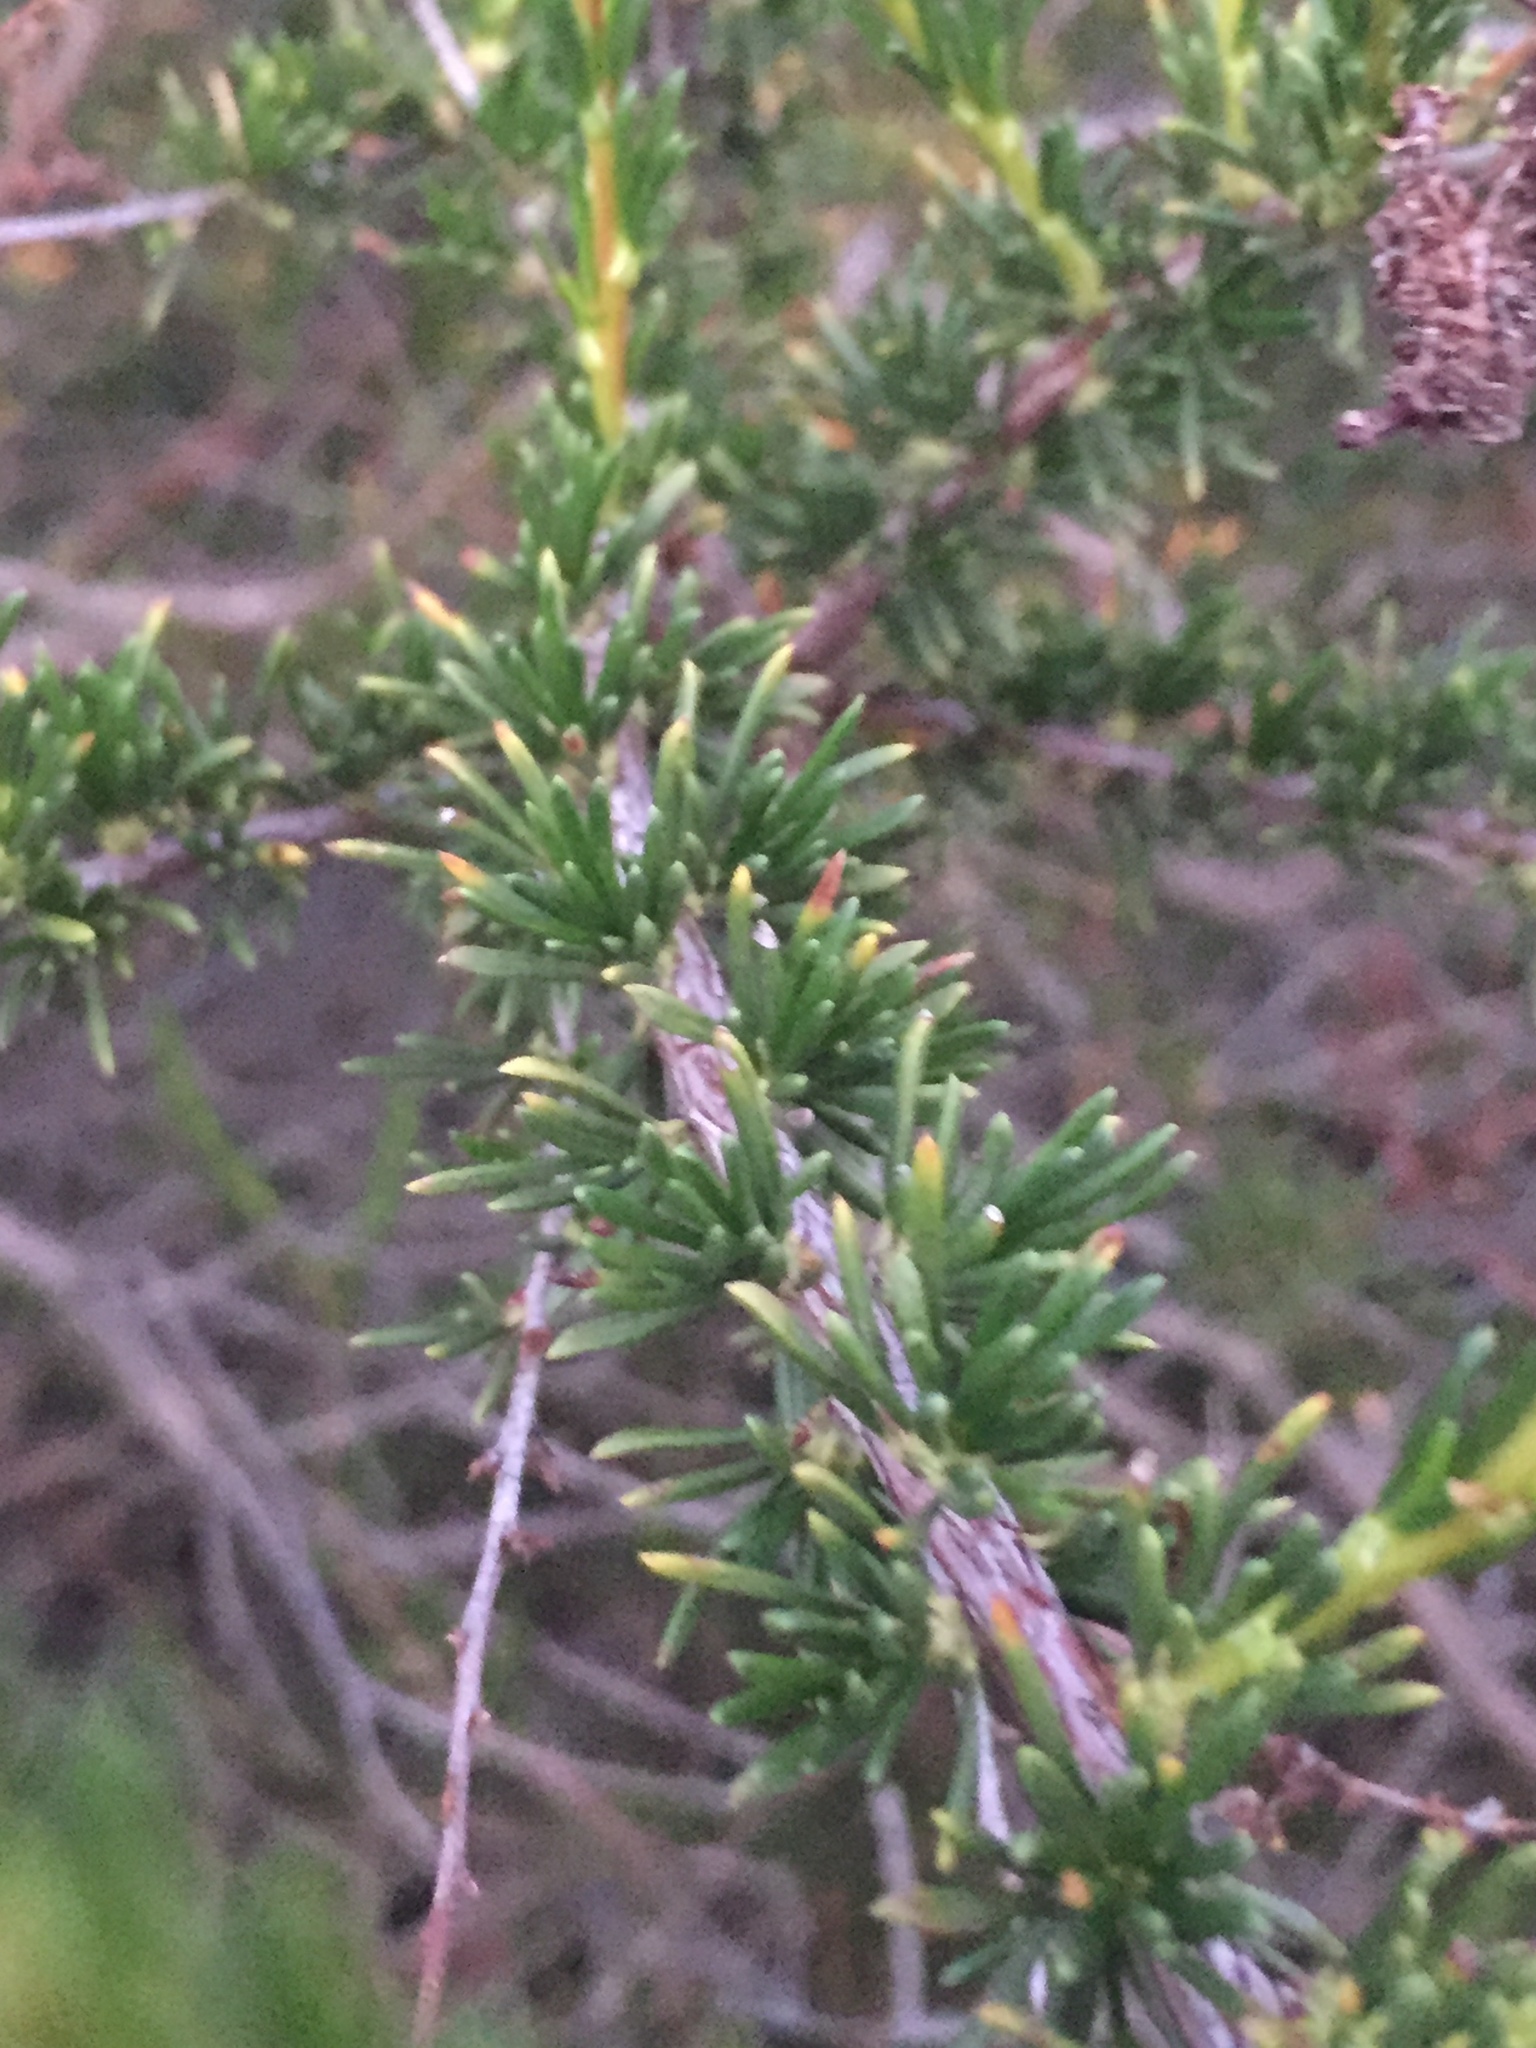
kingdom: Plantae
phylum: Tracheophyta
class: Magnoliopsida
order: Rosales
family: Rosaceae
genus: Adenostoma
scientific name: Adenostoma fasciculatum
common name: Chamise
